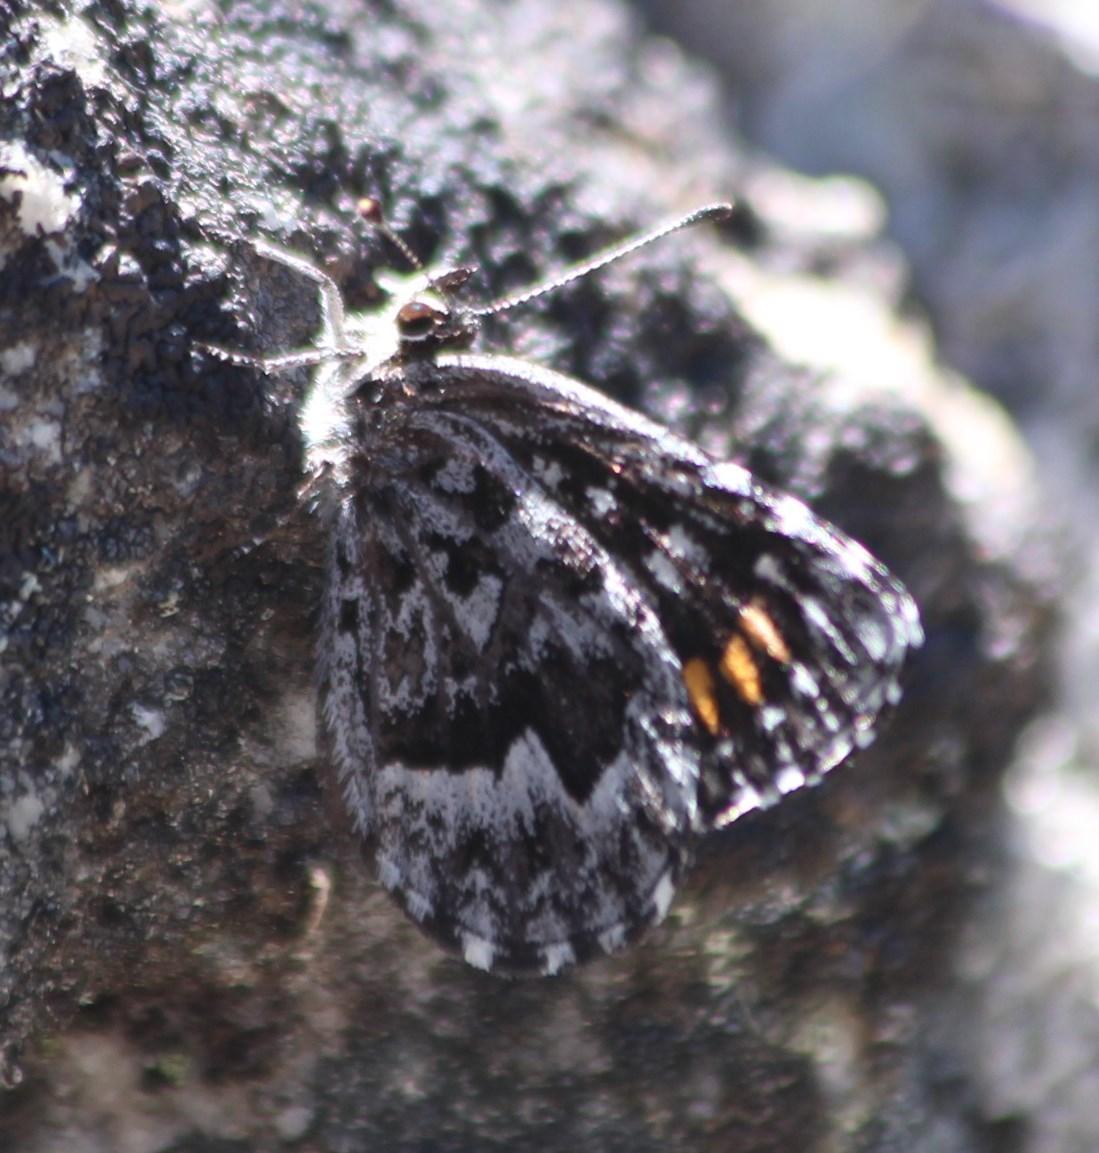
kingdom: Animalia
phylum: Arthropoda
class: Insecta
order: Lepidoptera
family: Lycaenidae
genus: Durbaniopsis
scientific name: Durbaniopsis saga
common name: Boland rocksitter
